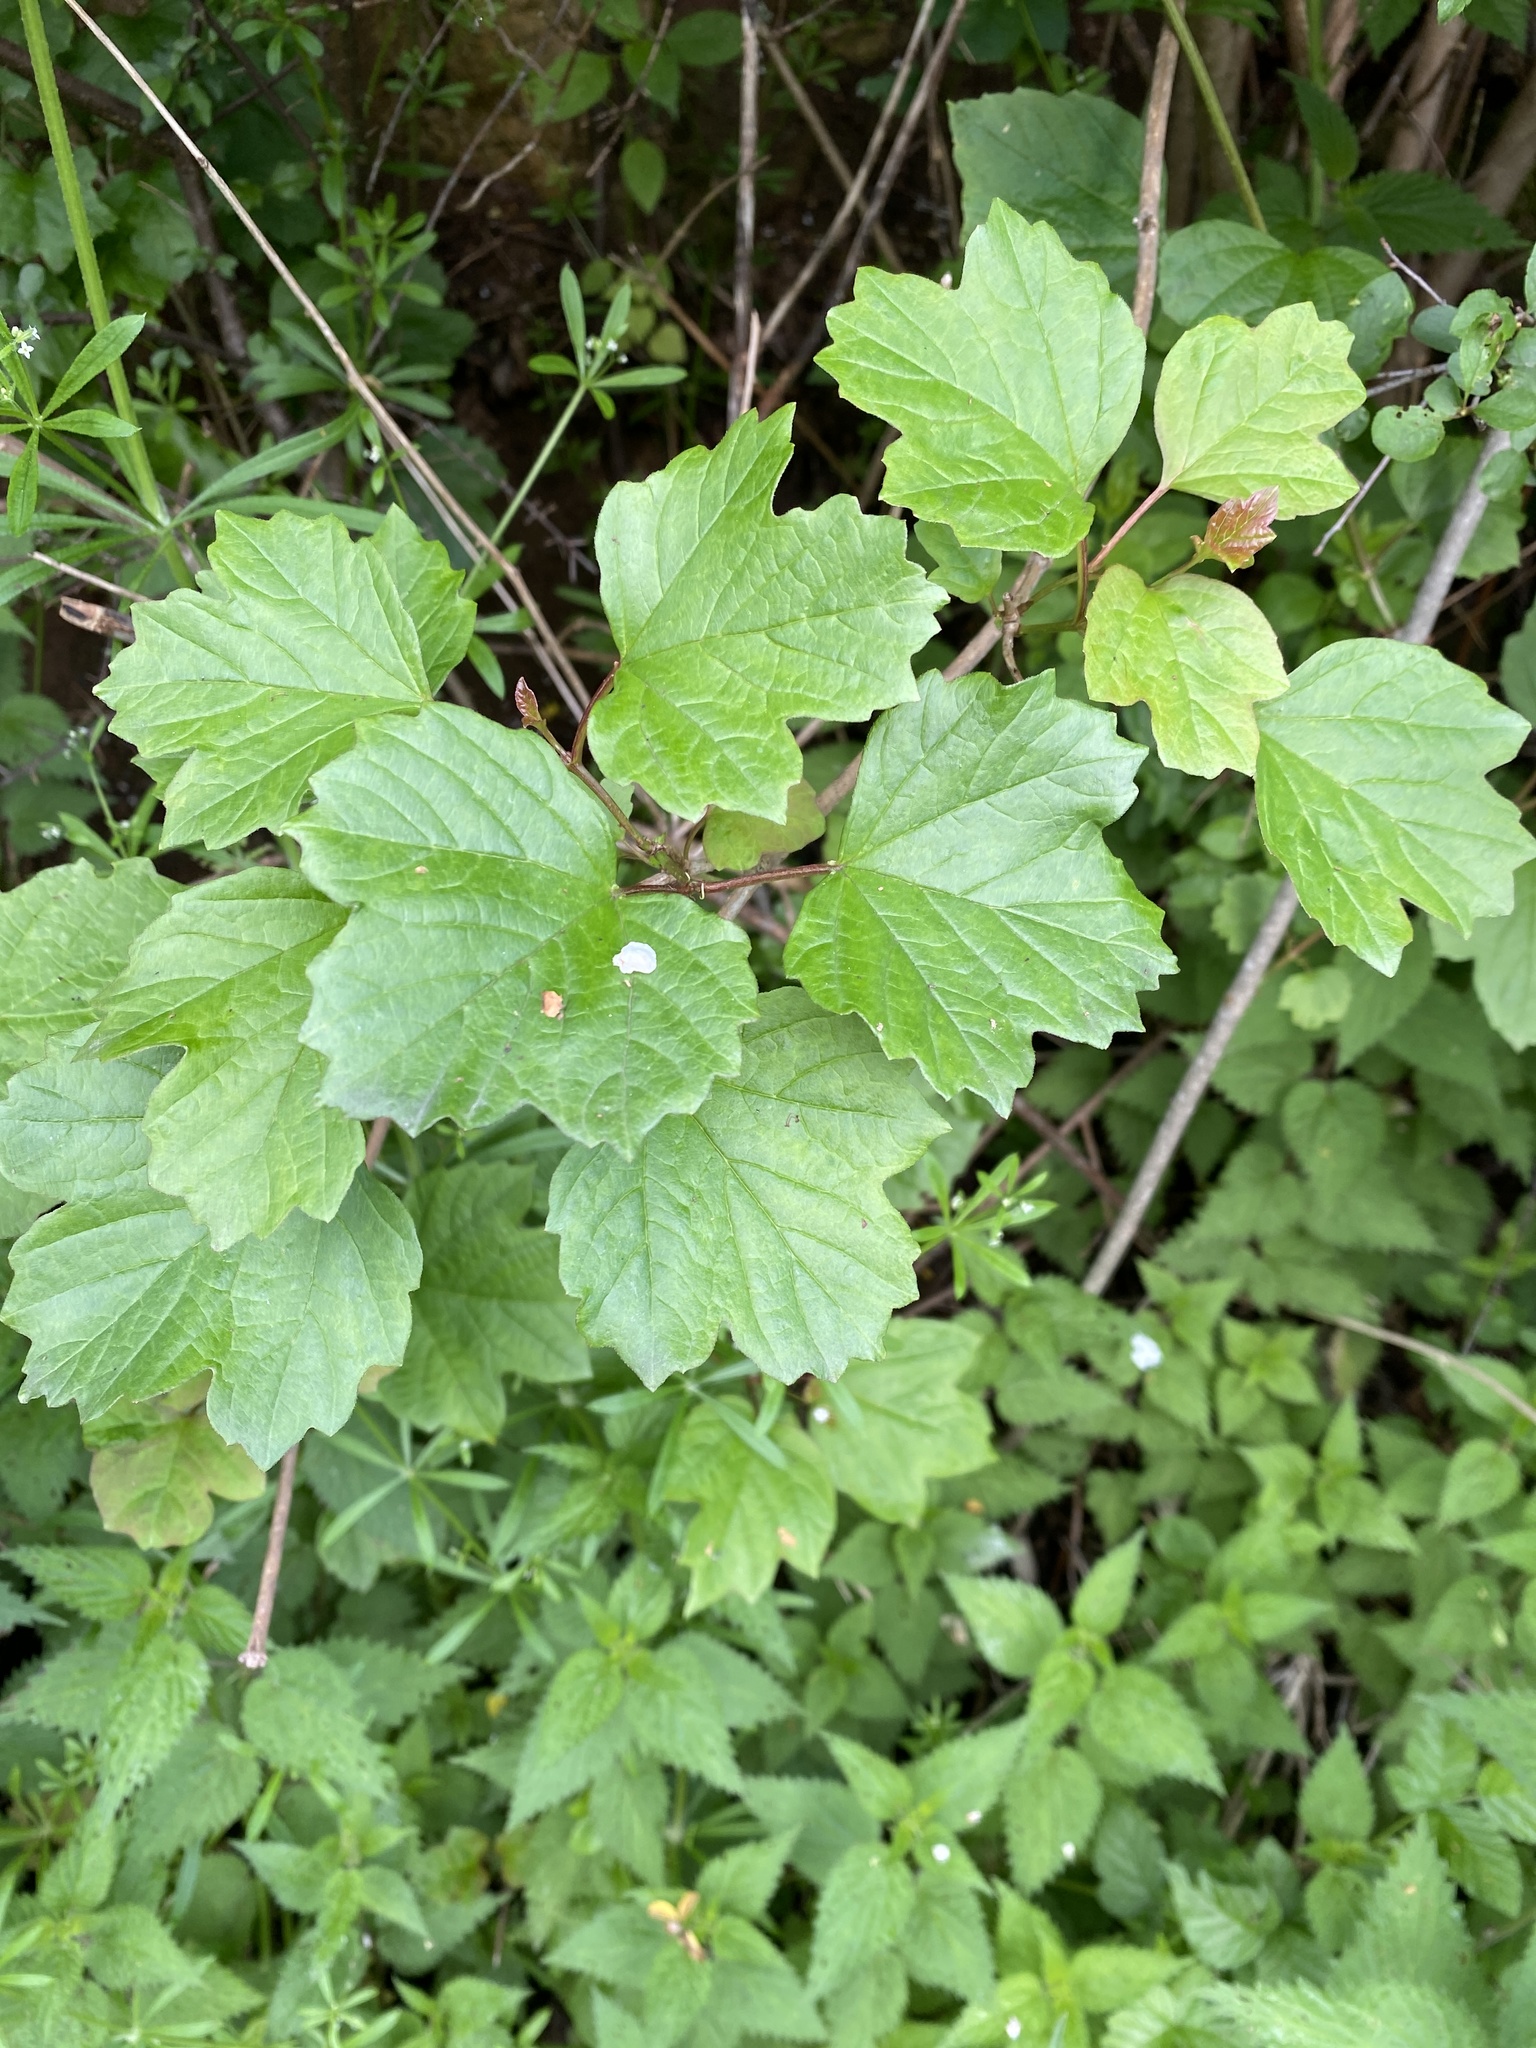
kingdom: Plantae
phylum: Tracheophyta
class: Magnoliopsida
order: Dipsacales
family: Viburnaceae
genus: Viburnum
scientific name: Viburnum opulus
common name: Guelder-rose
